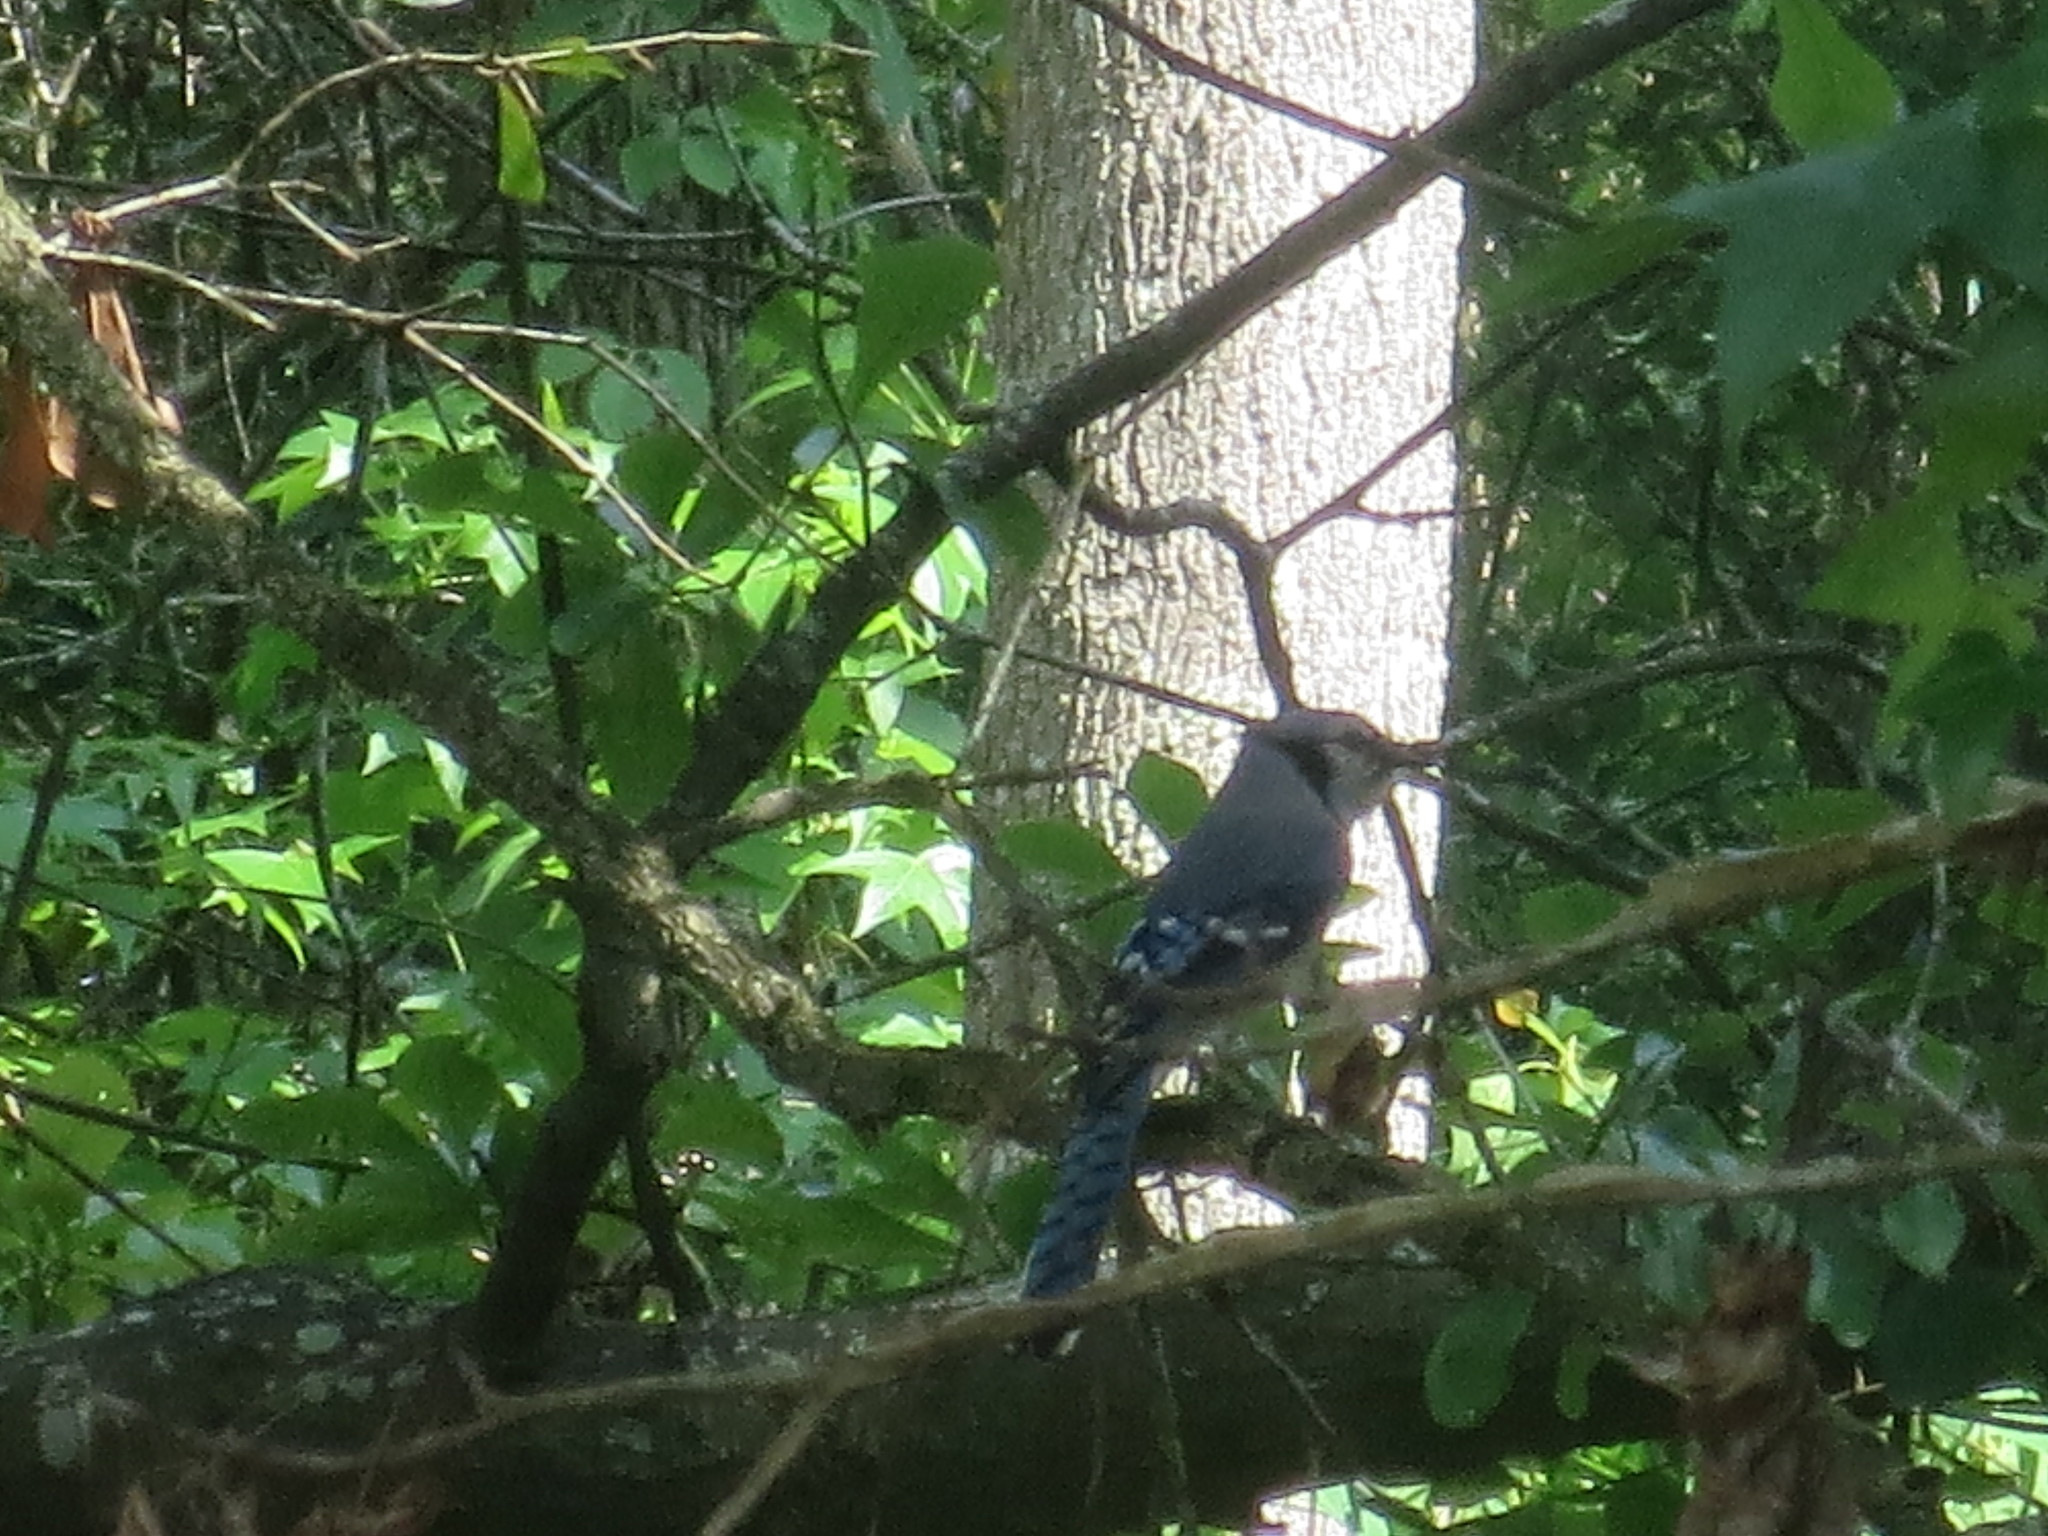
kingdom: Animalia
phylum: Chordata
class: Aves
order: Passeriformes
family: Corvidae
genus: Cyanocitta
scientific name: Cyanocitta cristata
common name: Blue jay
